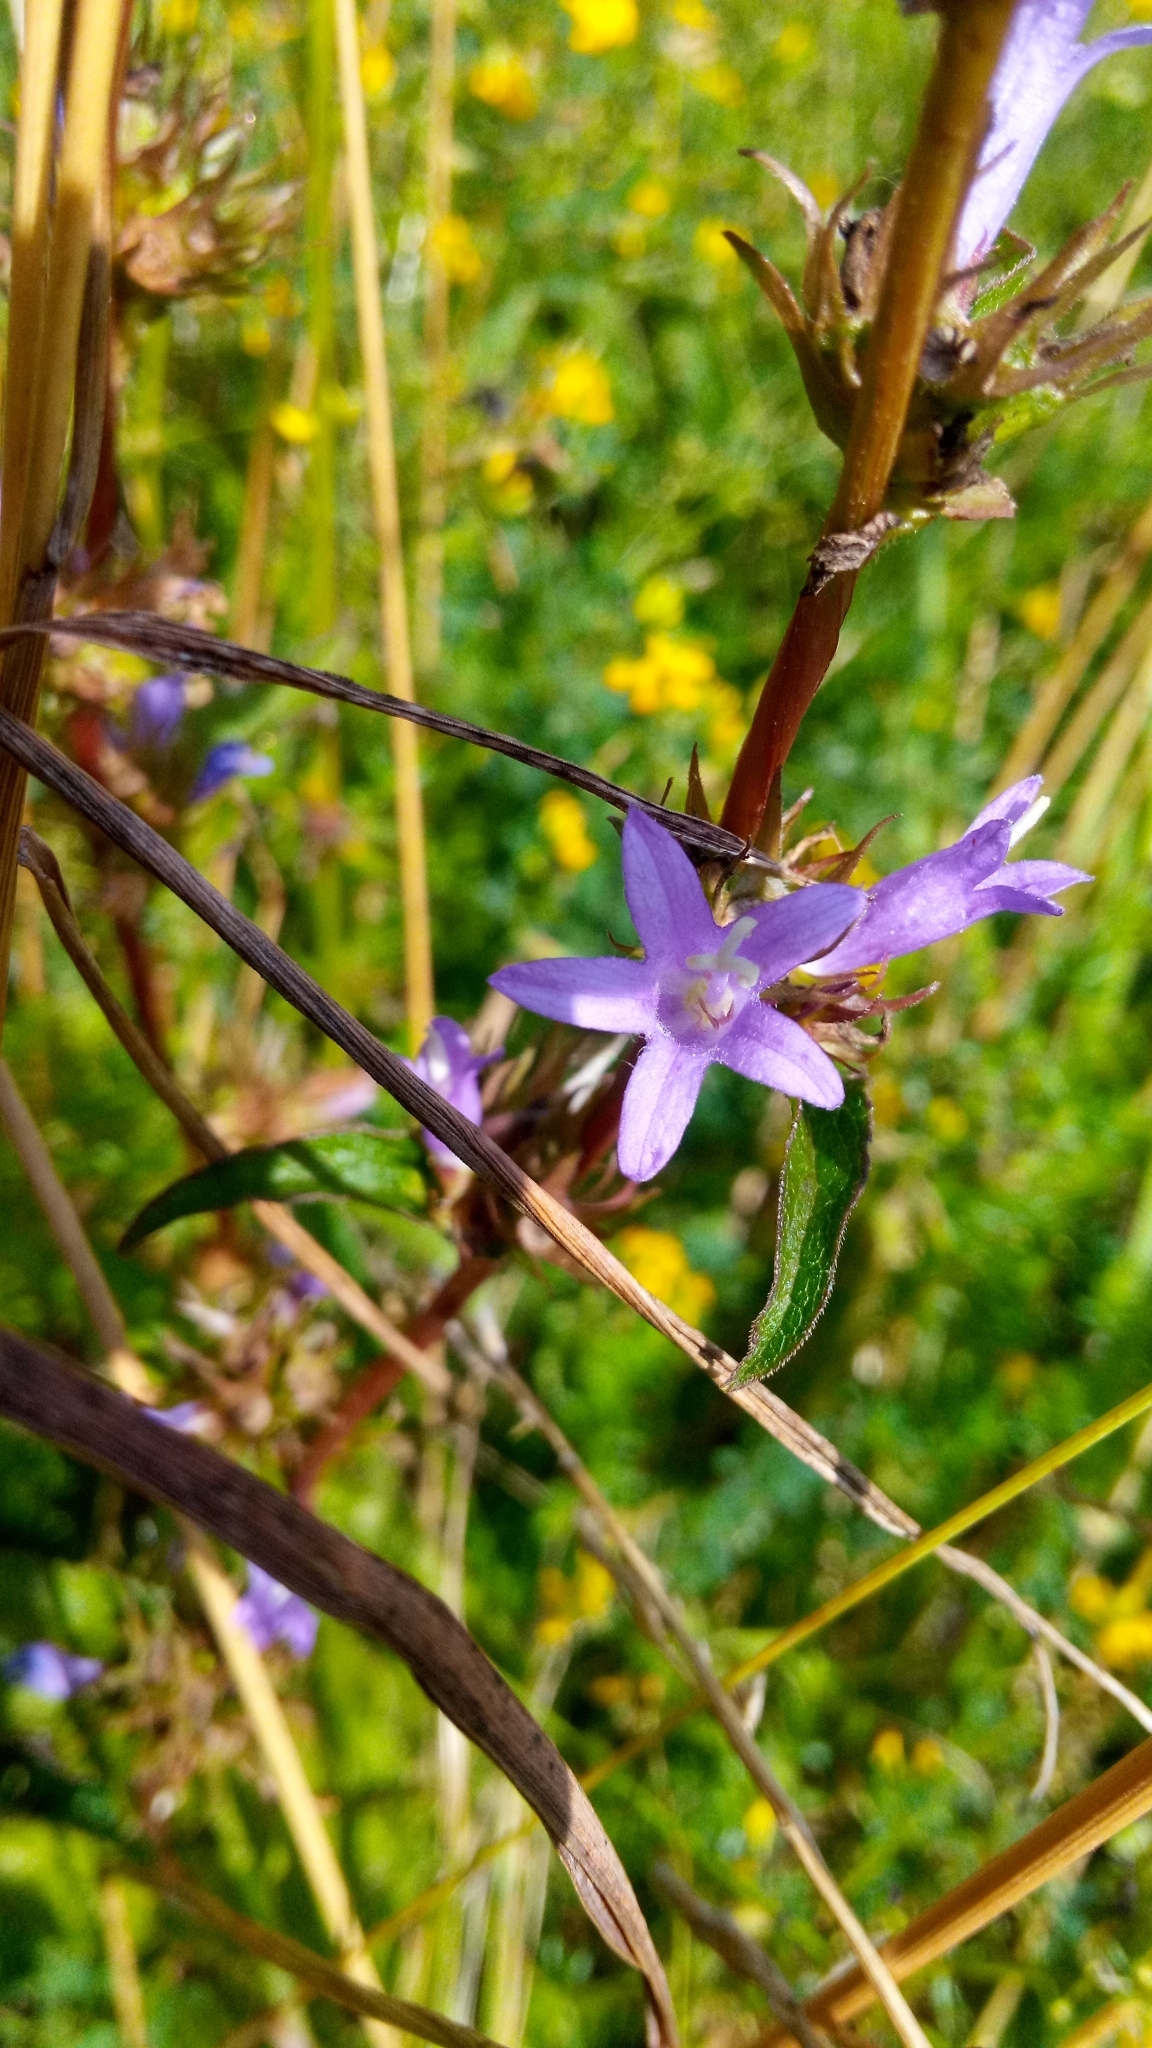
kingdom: Plantae
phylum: Tracheophyta
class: Magnoliopsida
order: Asterales
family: Campanulaceae
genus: Campanula
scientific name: Campanula glomerata
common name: Clustered bellflower
